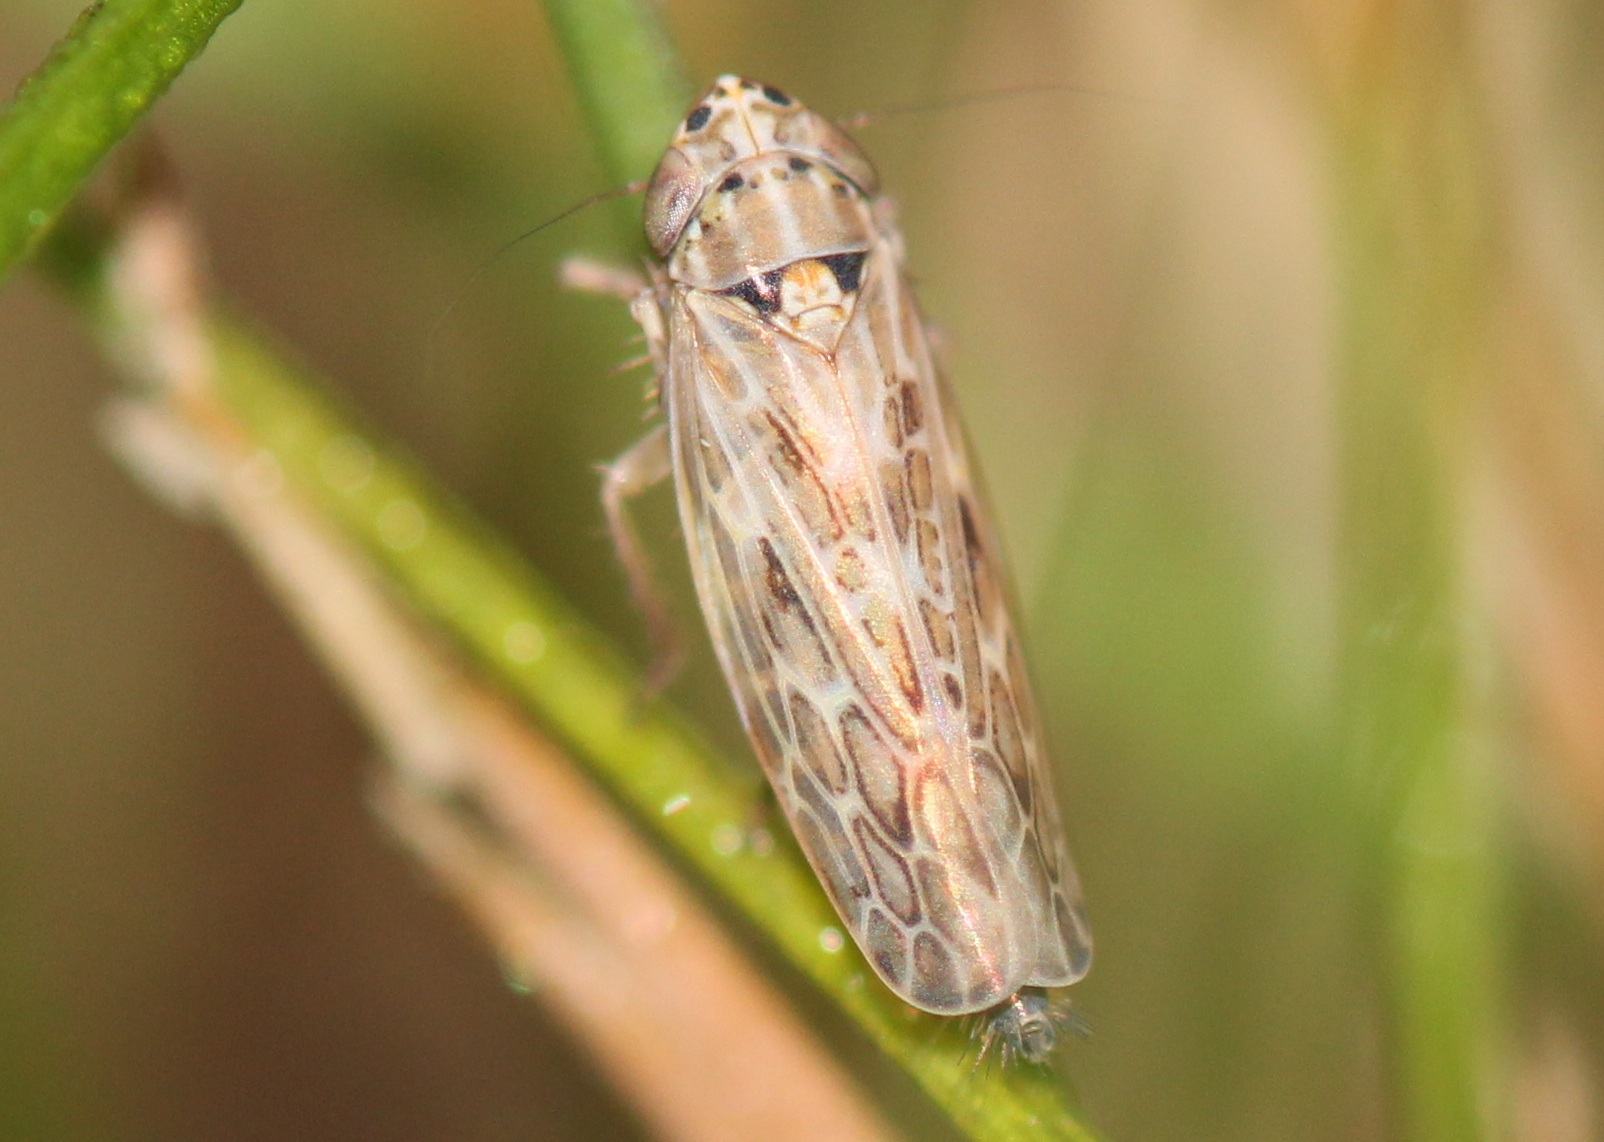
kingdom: Animalia
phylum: Arthropoda
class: Insecta
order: Hemiptera
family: Cicadellidae
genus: Endria
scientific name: Endria inimicus
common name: Painted leafhopper
